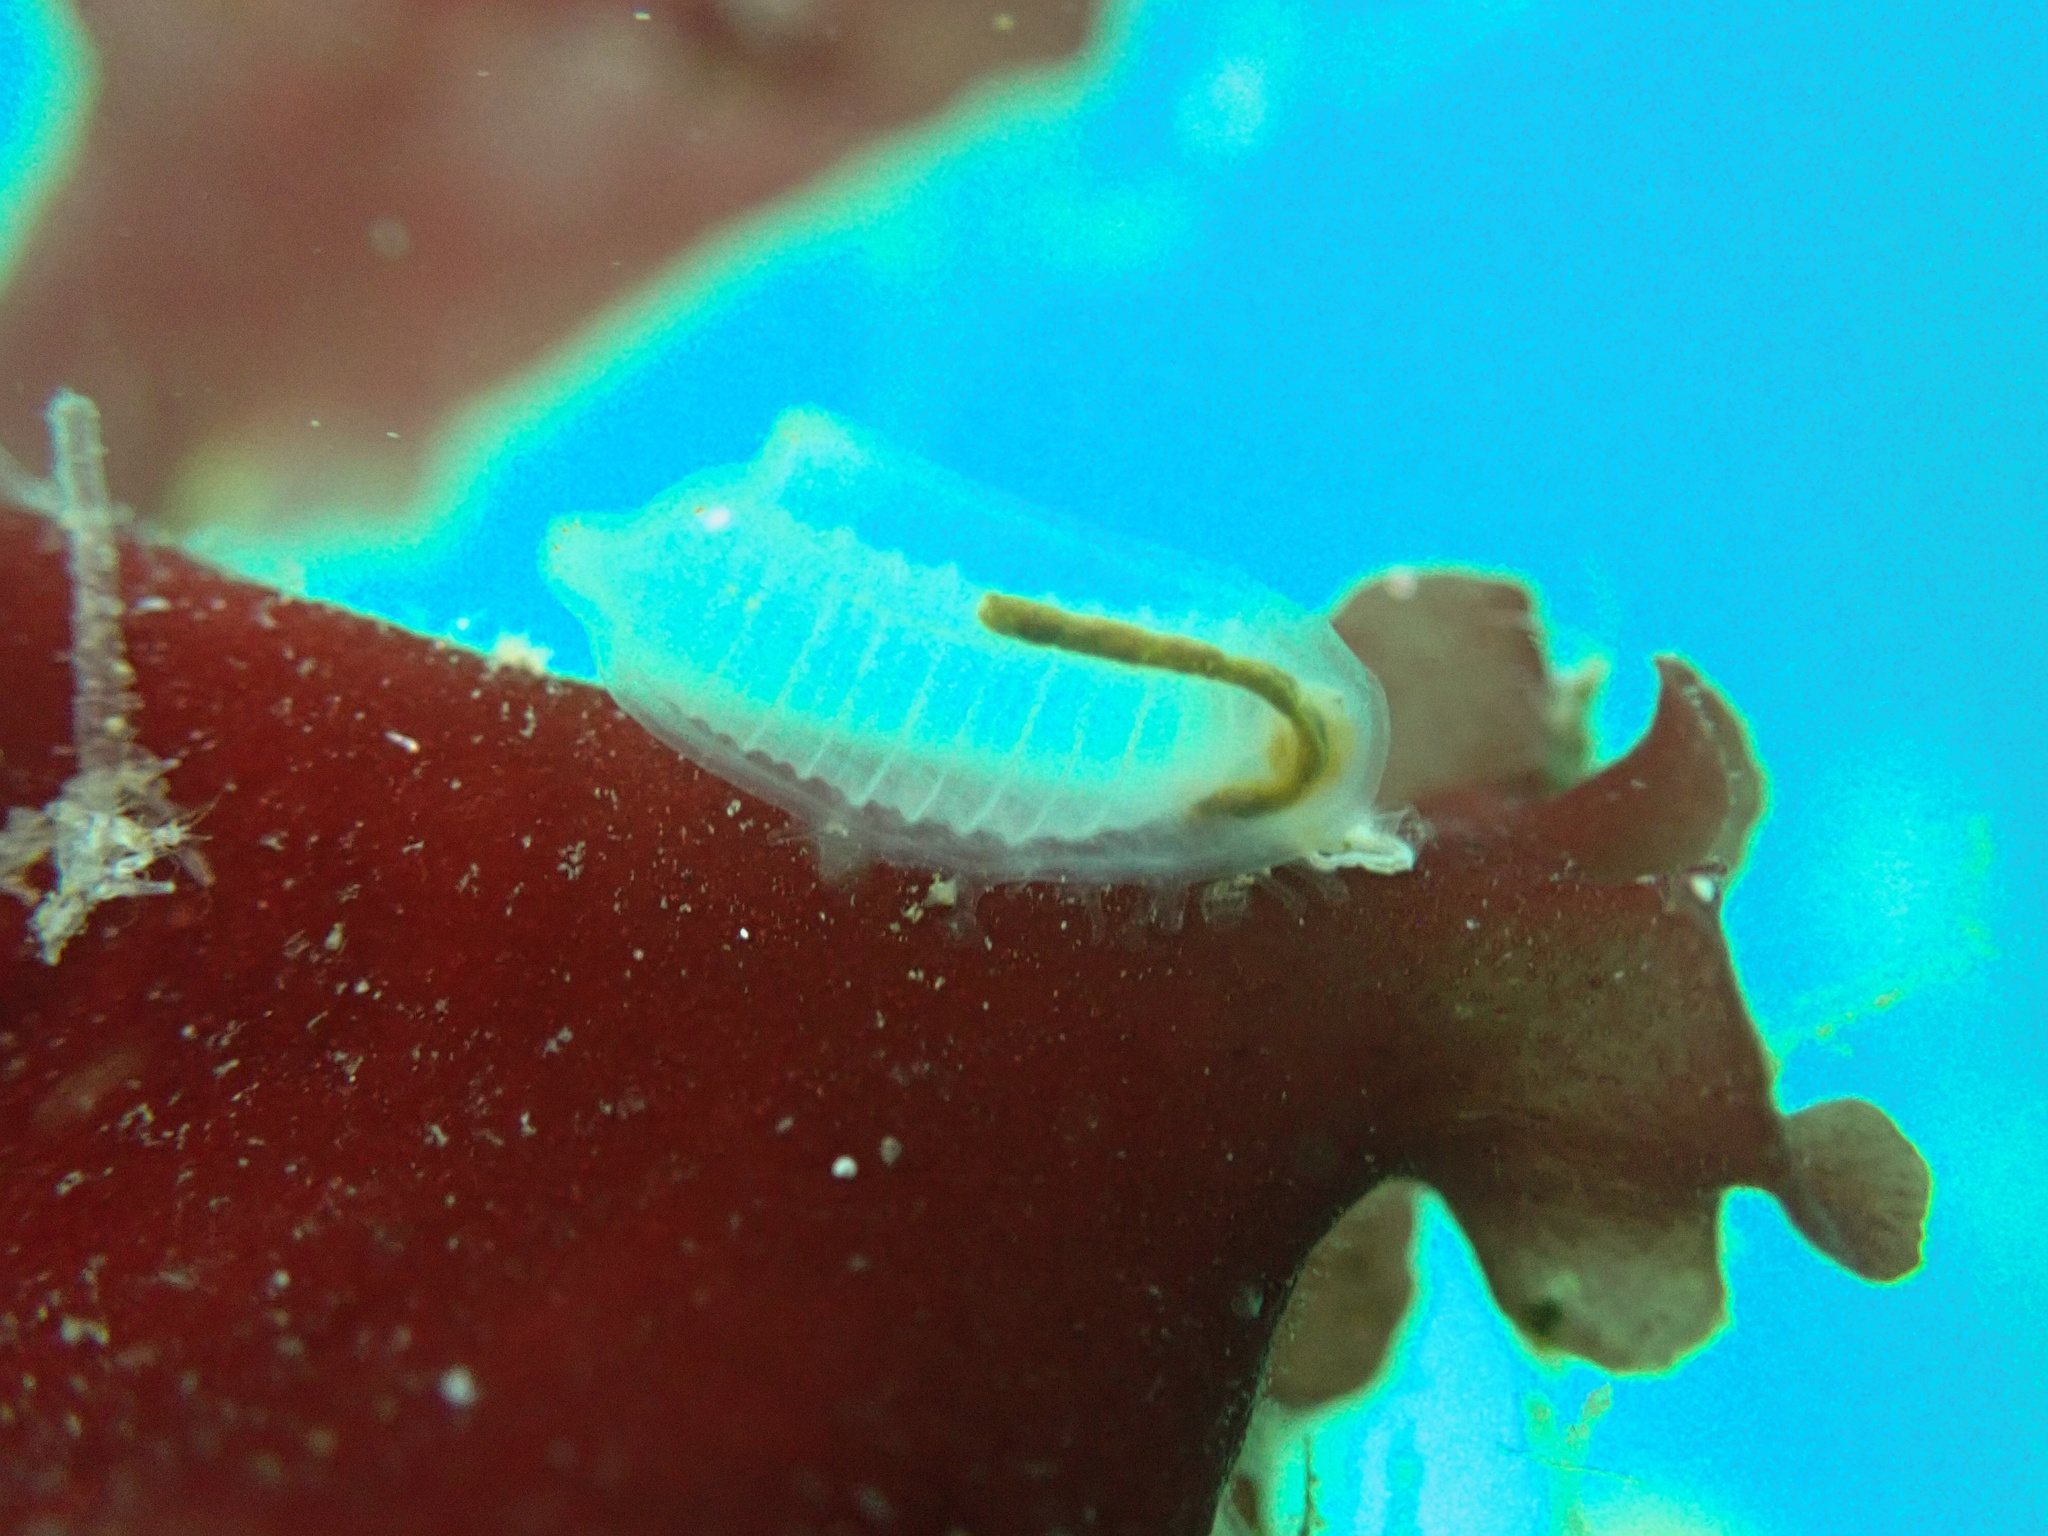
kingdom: Animalia
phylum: Chordata
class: Ascidiacea
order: Phlebobranchia
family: Cionidae
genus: Ciona
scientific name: Ciona robusta
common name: Tunicate
